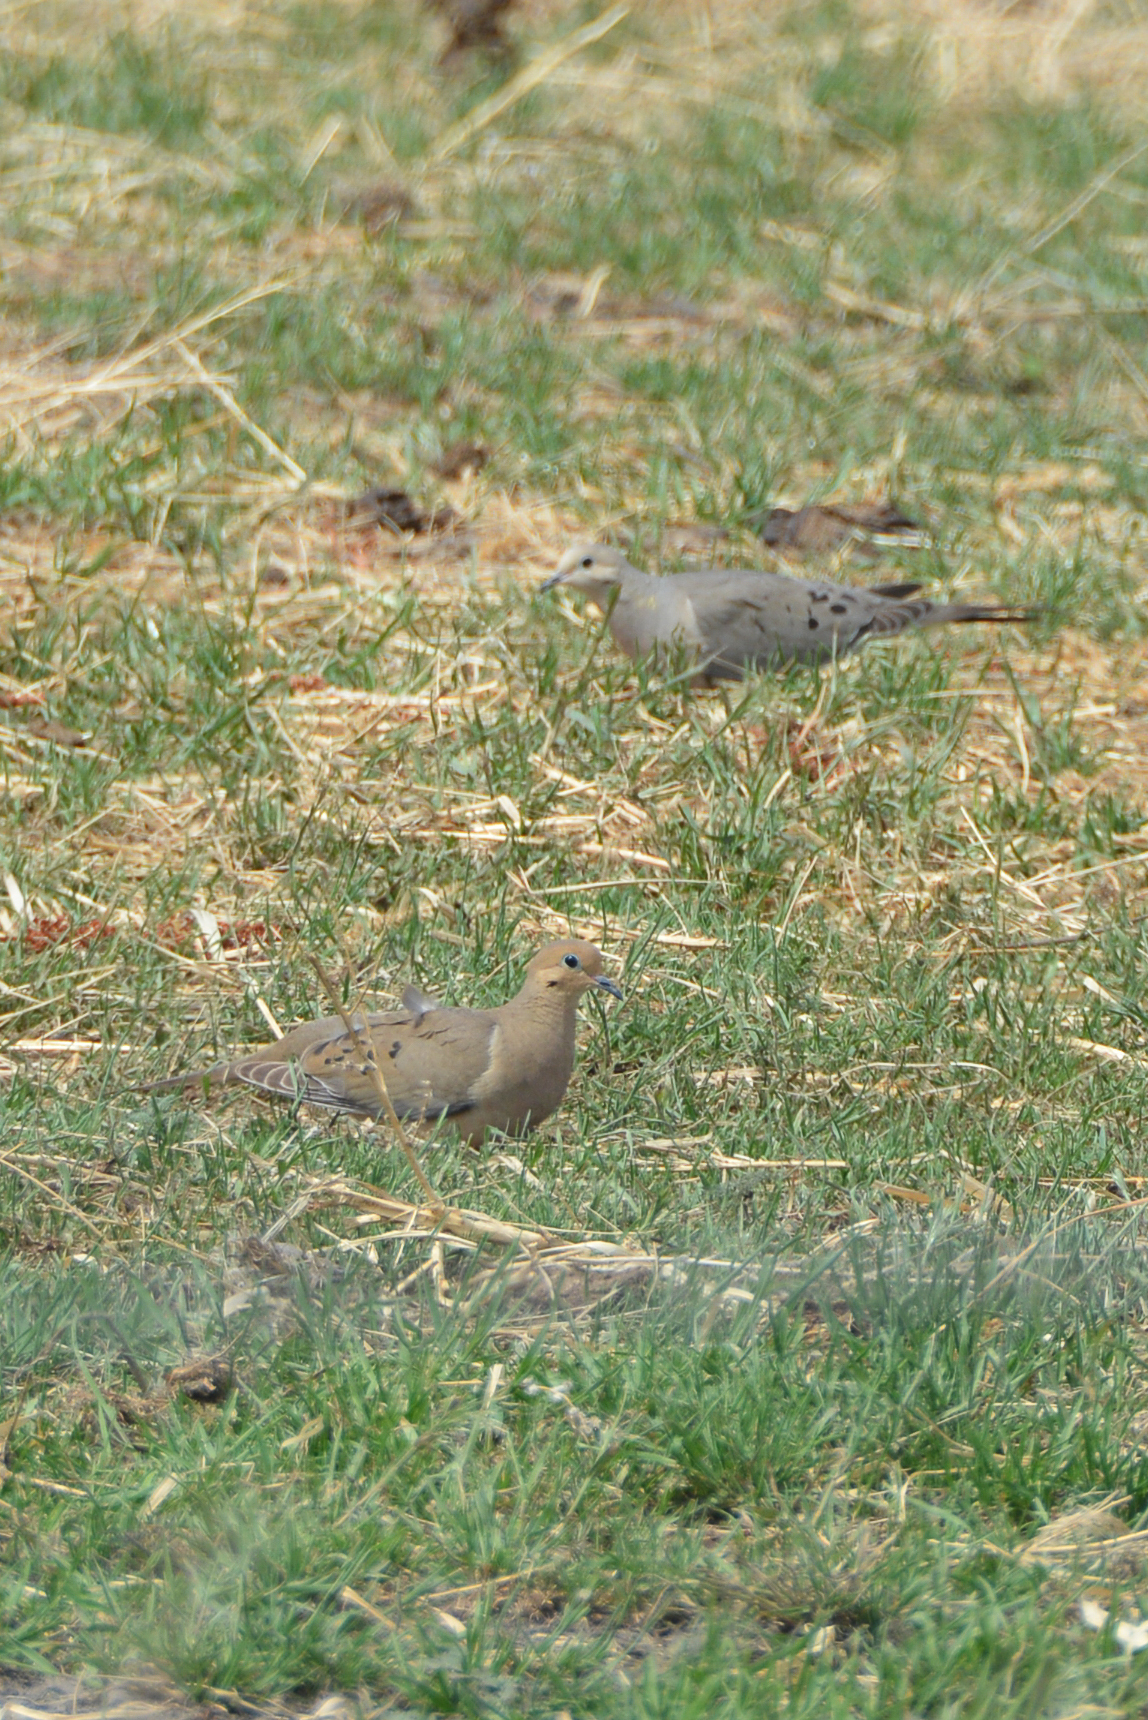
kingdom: Animalia
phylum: Chordata
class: Aves
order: Columbiformes
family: Columbidae
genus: Zenaida
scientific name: Zenaida macroura
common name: Mourning dove
